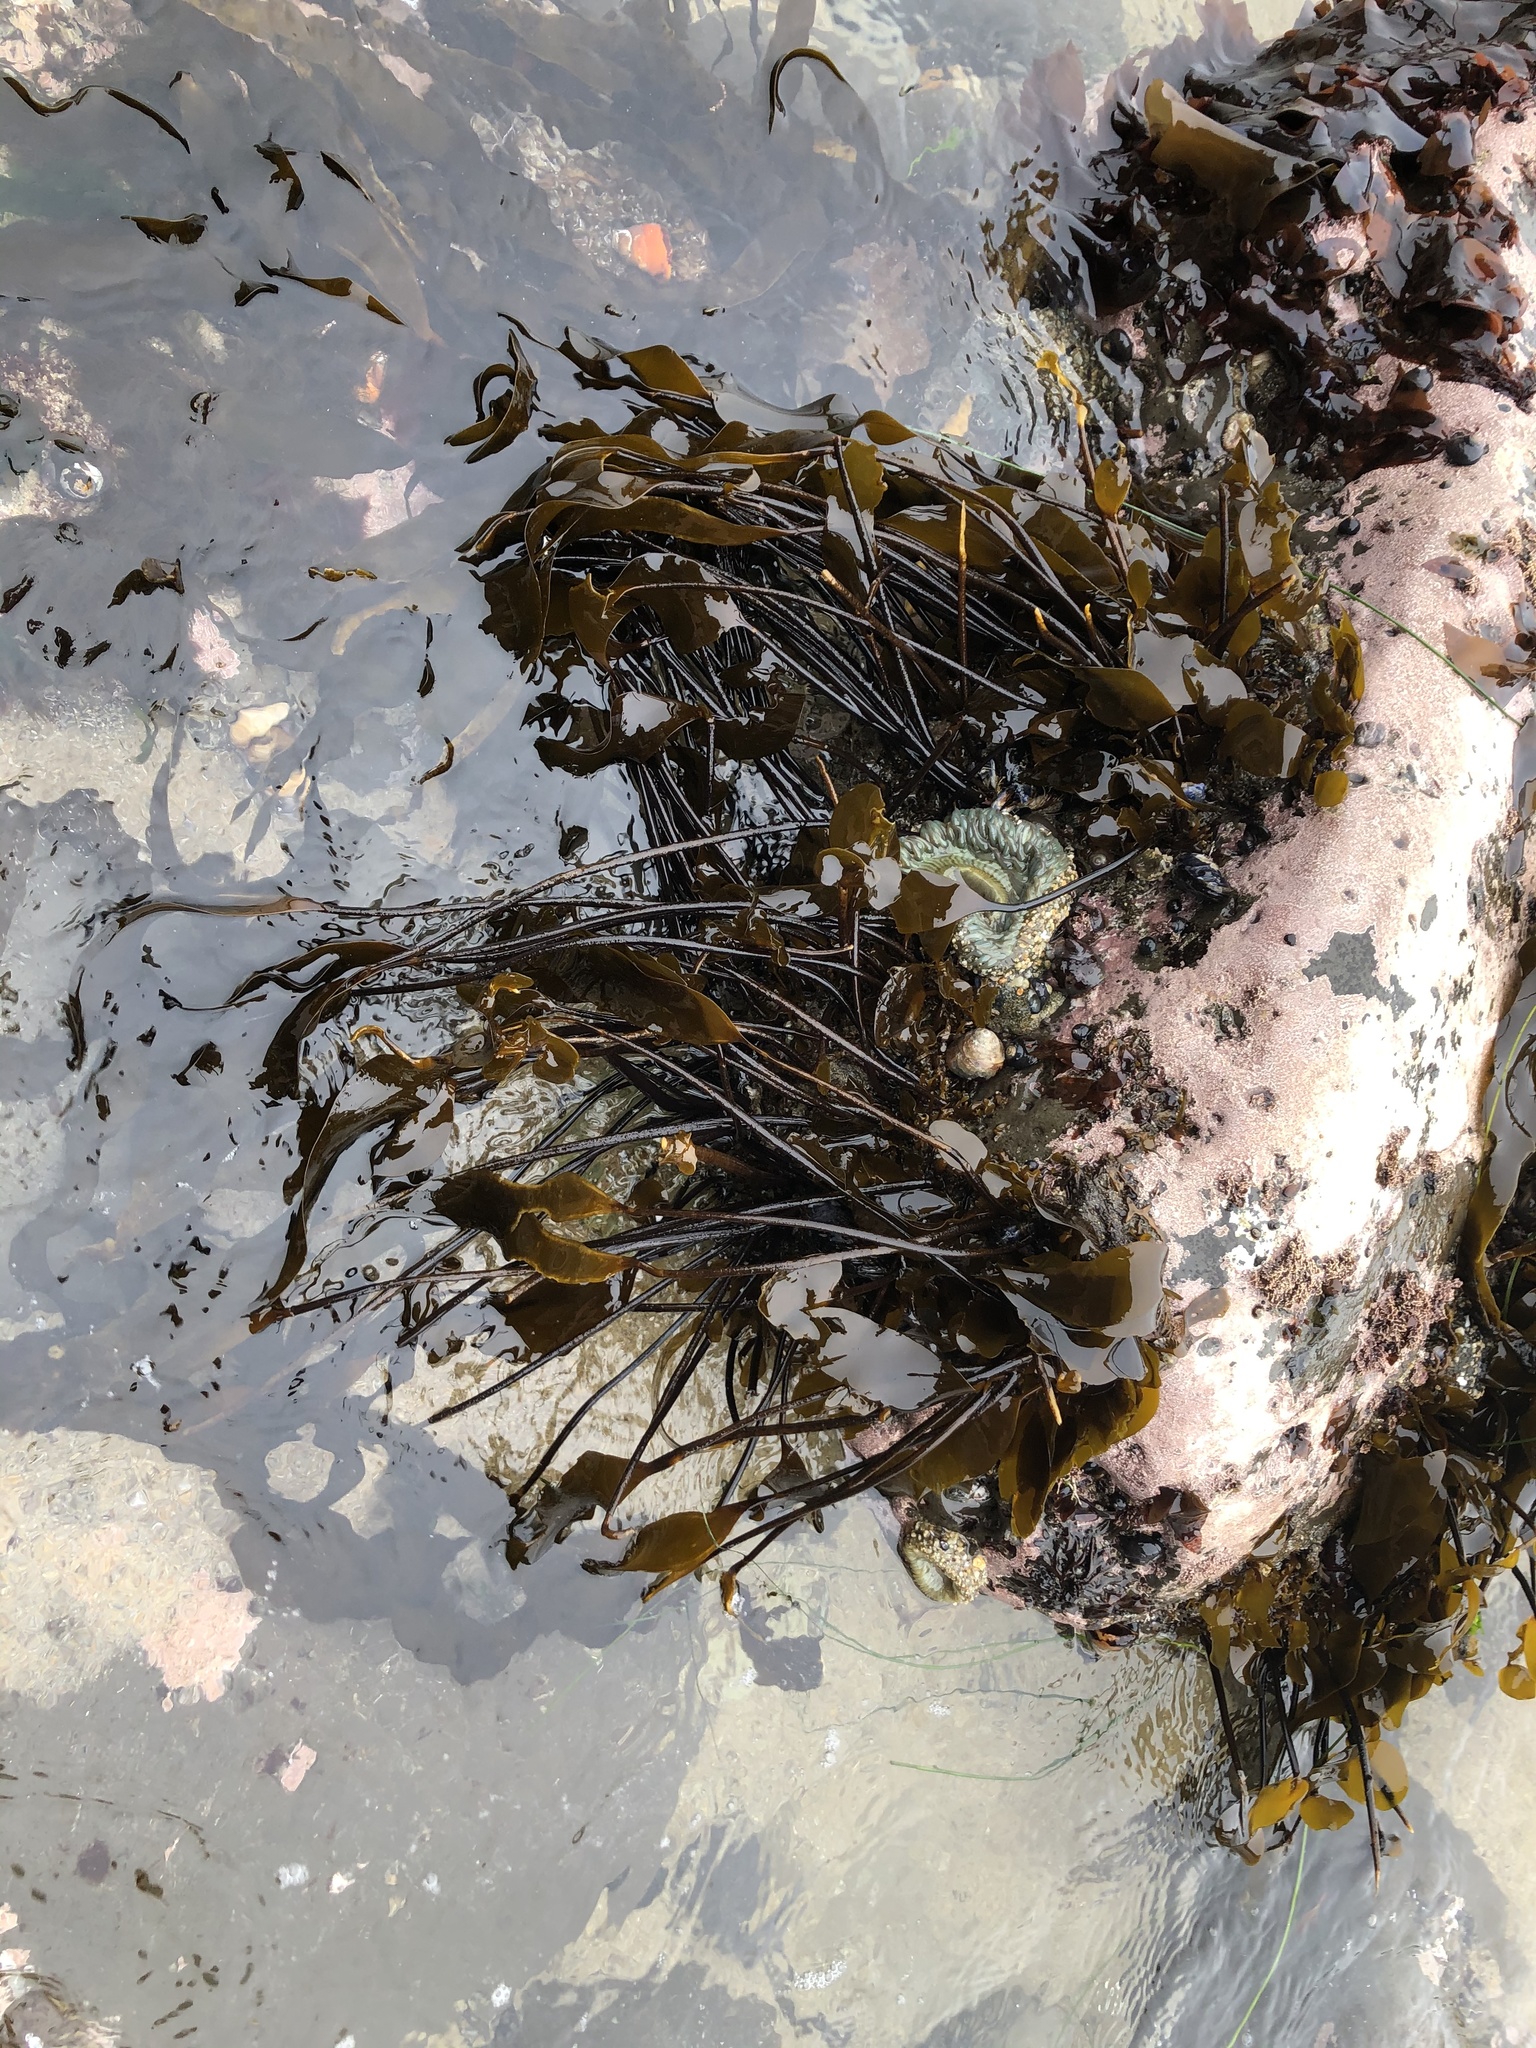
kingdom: Chromista
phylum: Ochrophyta
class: Phaeophyceae
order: Laminariales
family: Laminariaceae
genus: Laminaria
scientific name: Laminaria sinclairii
